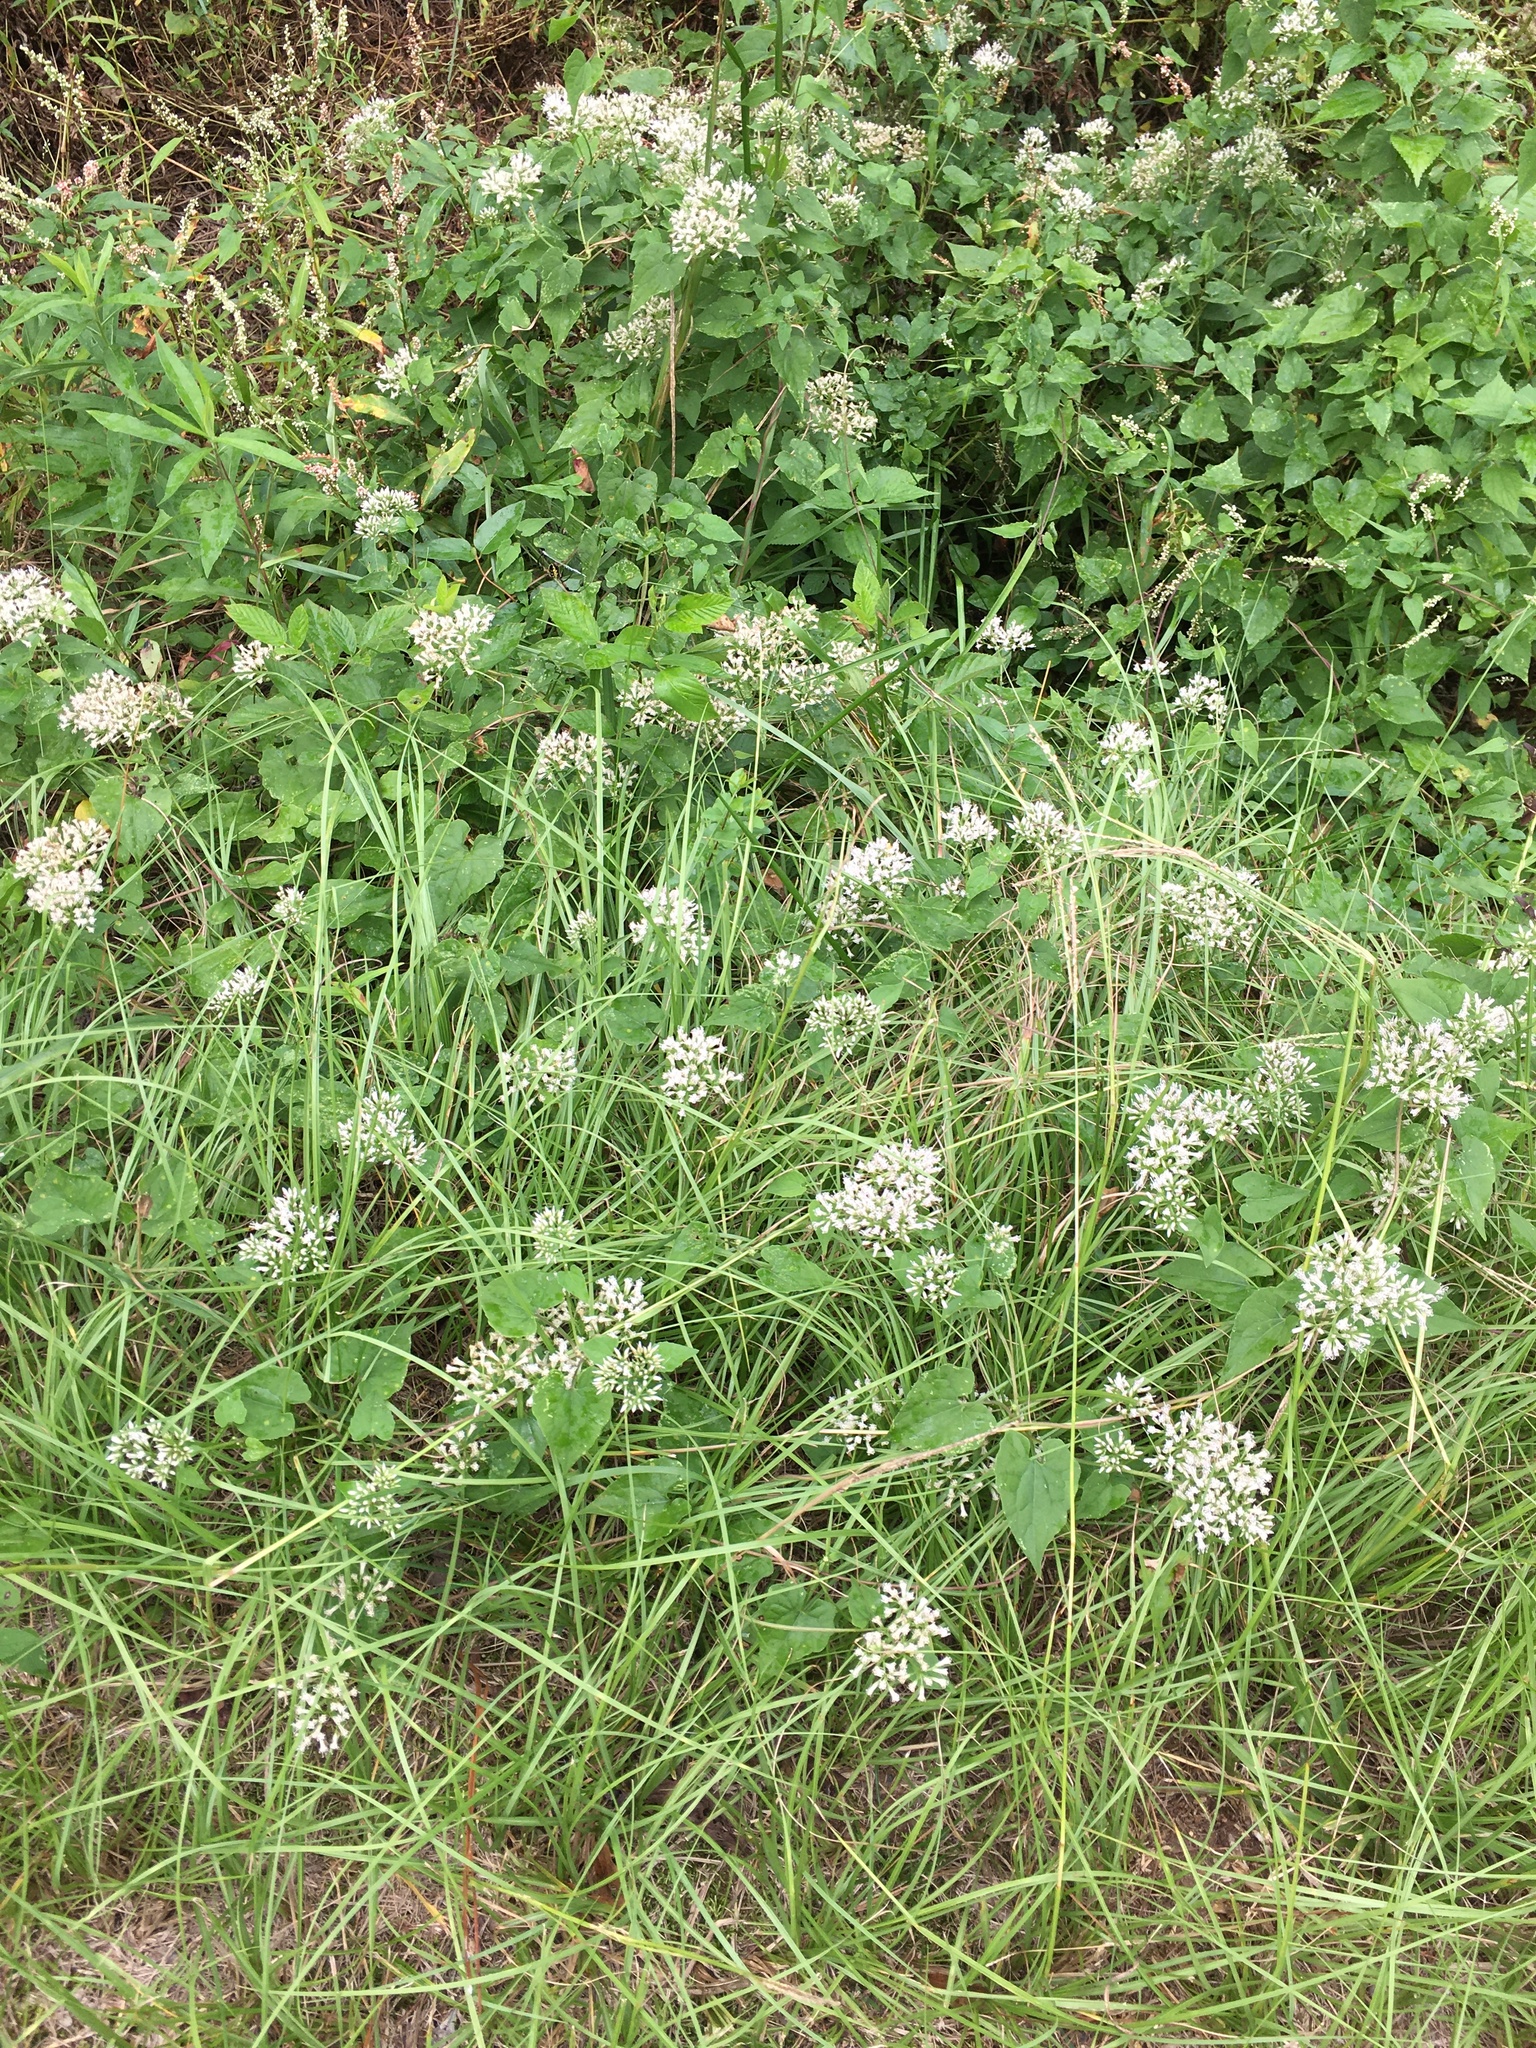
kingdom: Plantae
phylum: Tracheophyta
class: Magnoliopsida
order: Asterales
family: Asteraceae
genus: Mikania
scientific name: Mikania scandens
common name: Climbing hempvine
